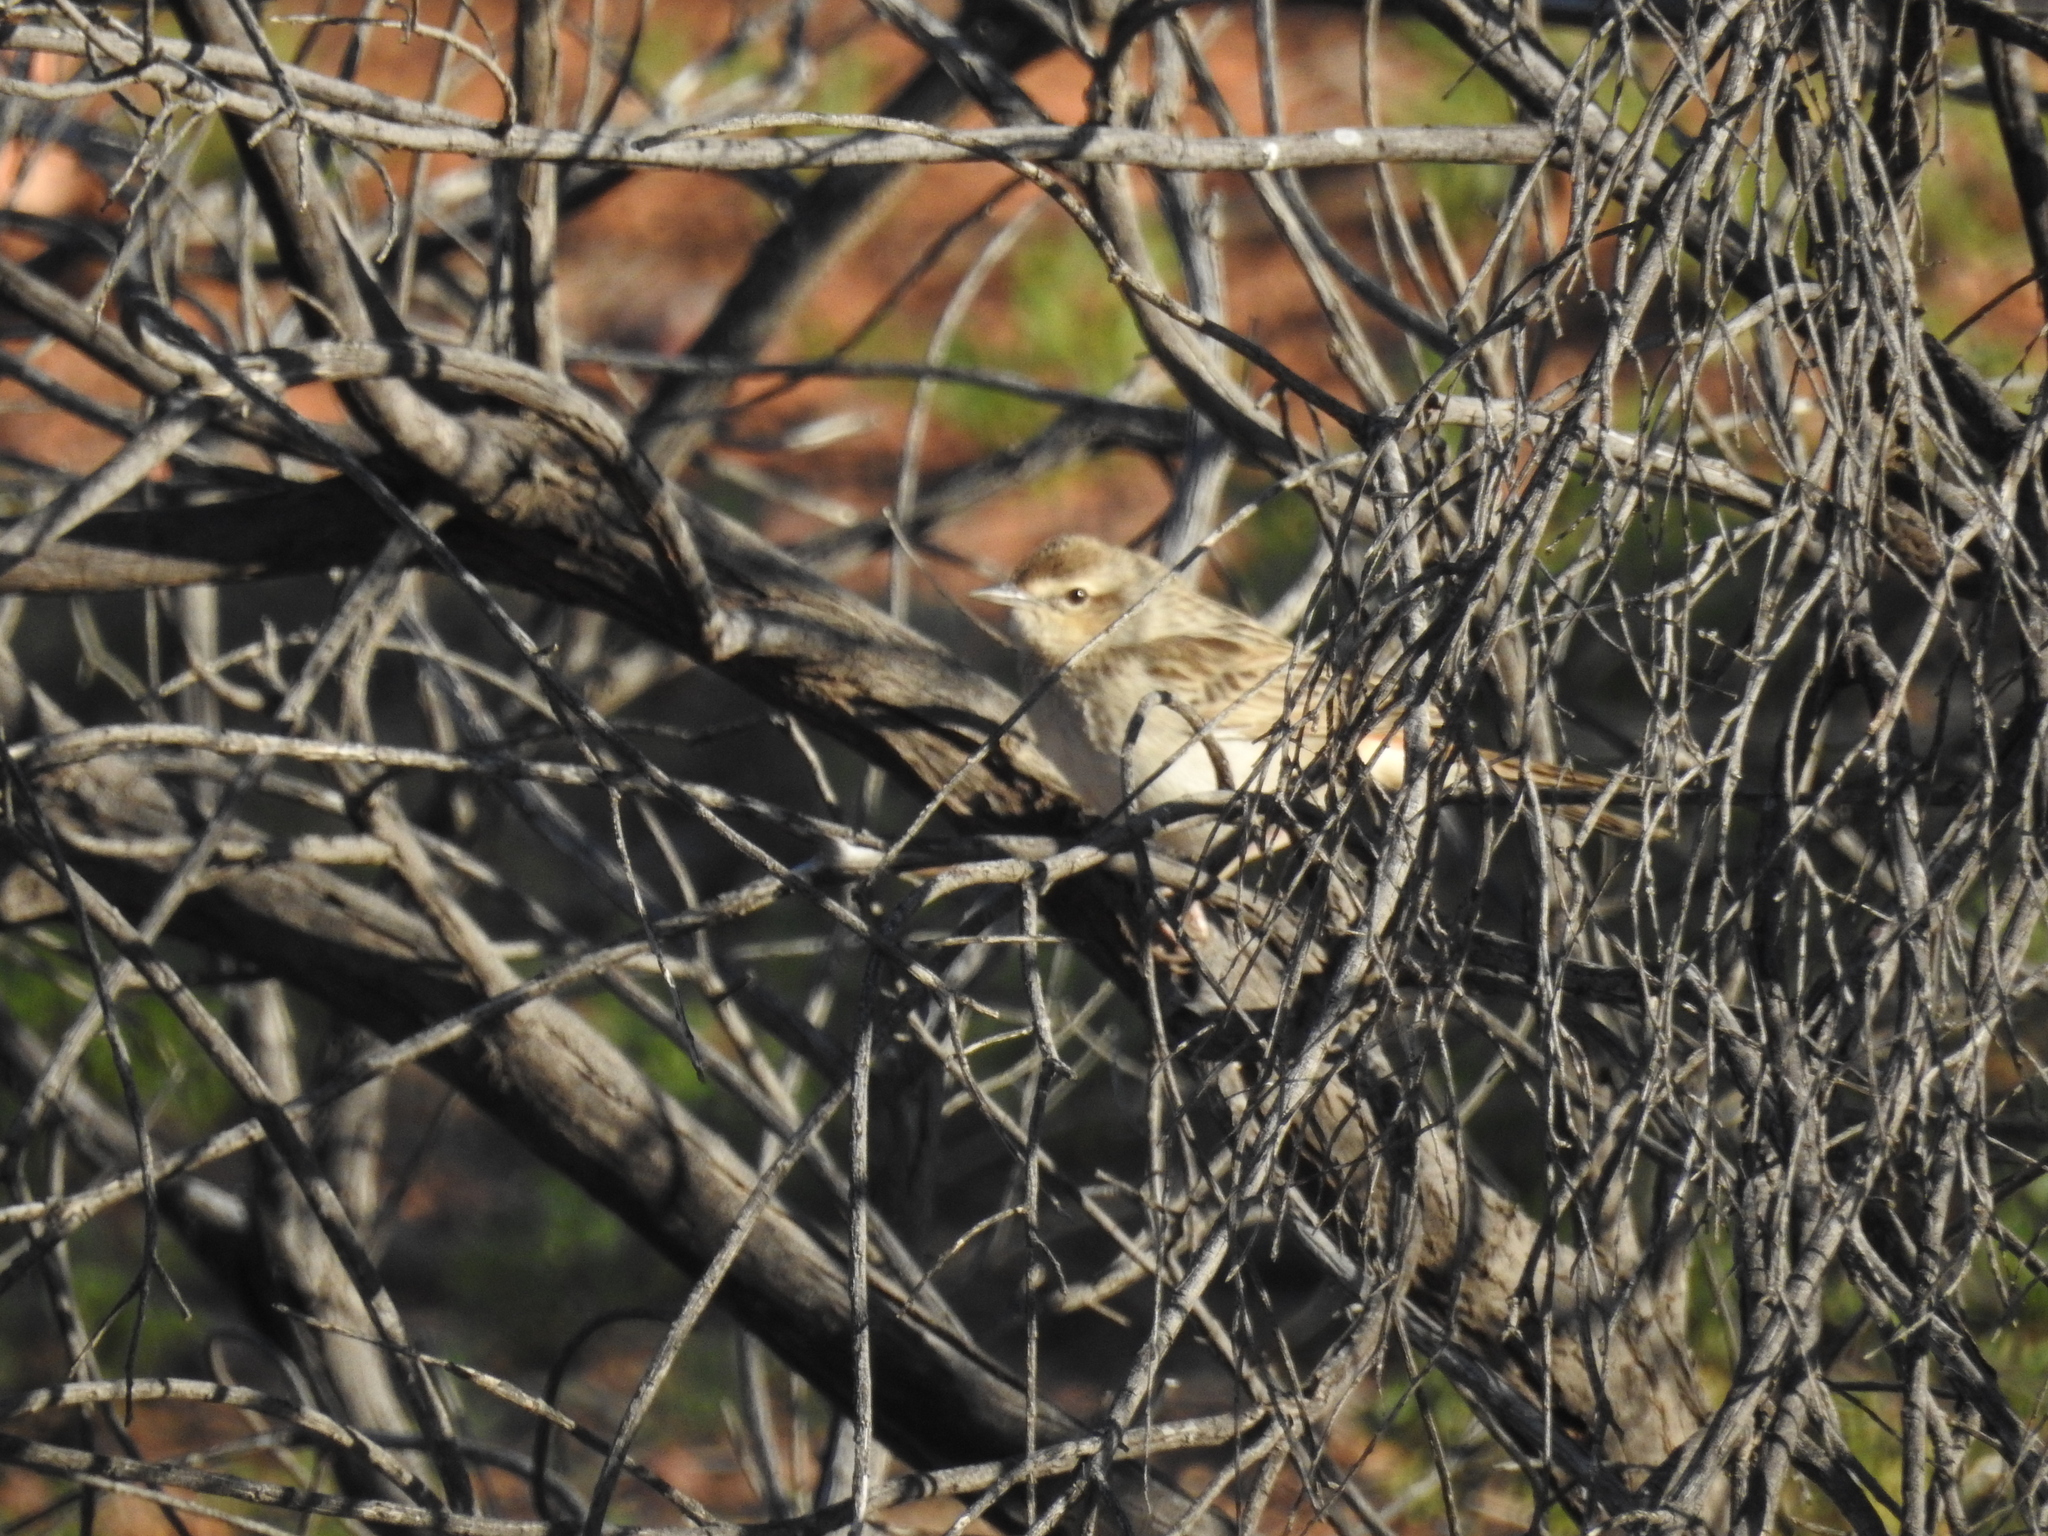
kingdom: Animalia
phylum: Chordata
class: Aves
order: Passeriformes
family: Locustellidae
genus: Megalurus
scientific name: Megalurus mathewsi
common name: Rufous songlark
